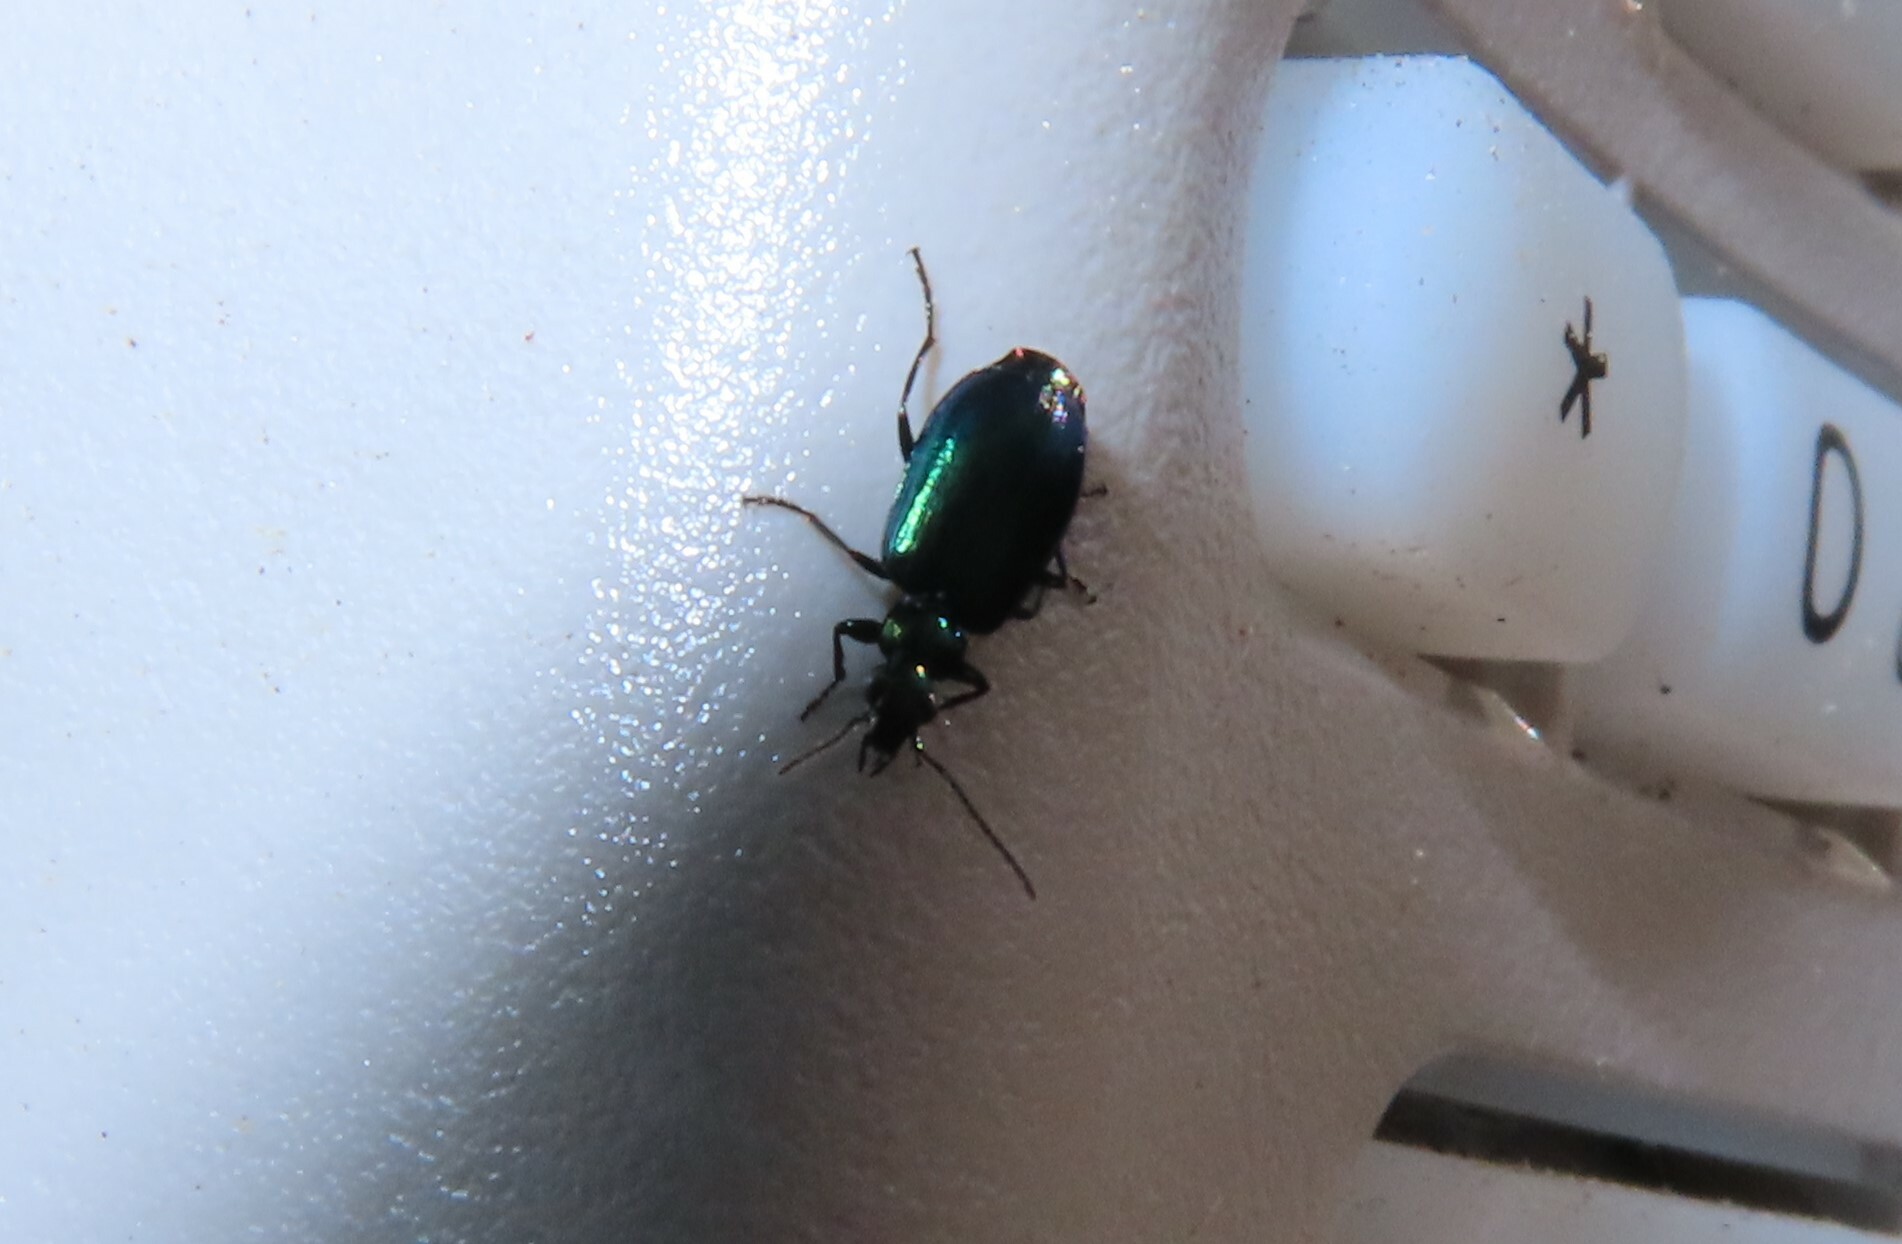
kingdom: Animalia
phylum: Arthropoda
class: Insecta
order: Coleoptera
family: Carabidae
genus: Lebia
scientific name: Lebia viridis
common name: Flower lebia beetle
